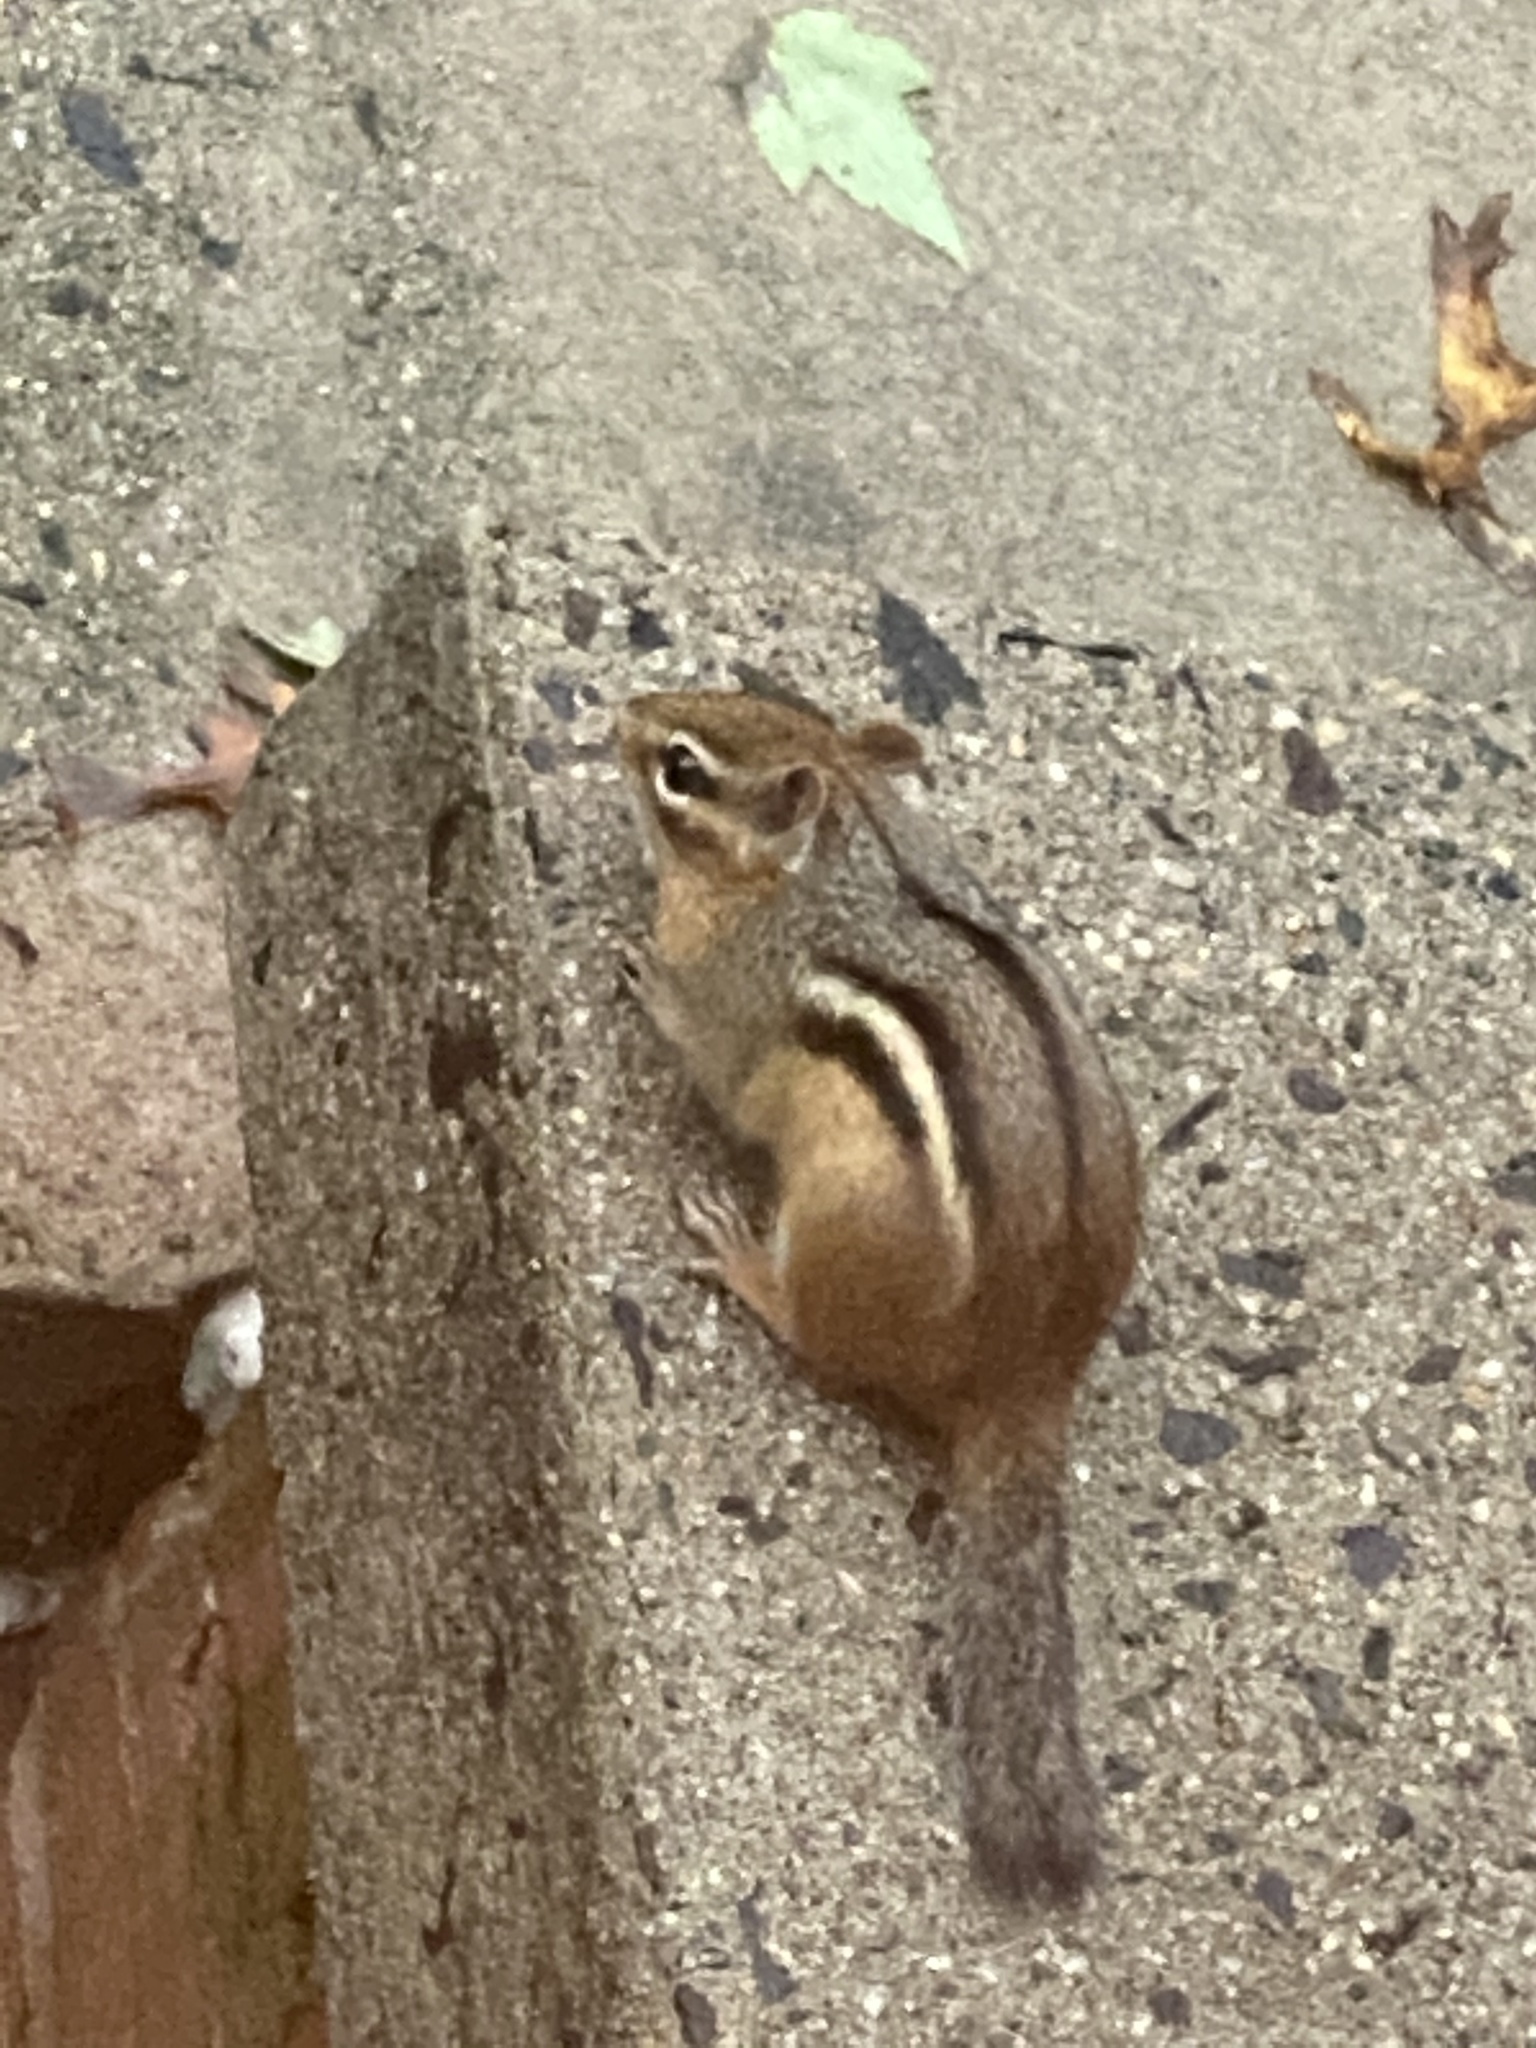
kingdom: Animalia
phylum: Chordata
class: Mammalia
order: Rodentia
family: Sciuridae
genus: Tamias
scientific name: Tamias striatus
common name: Eastern chipmunk
